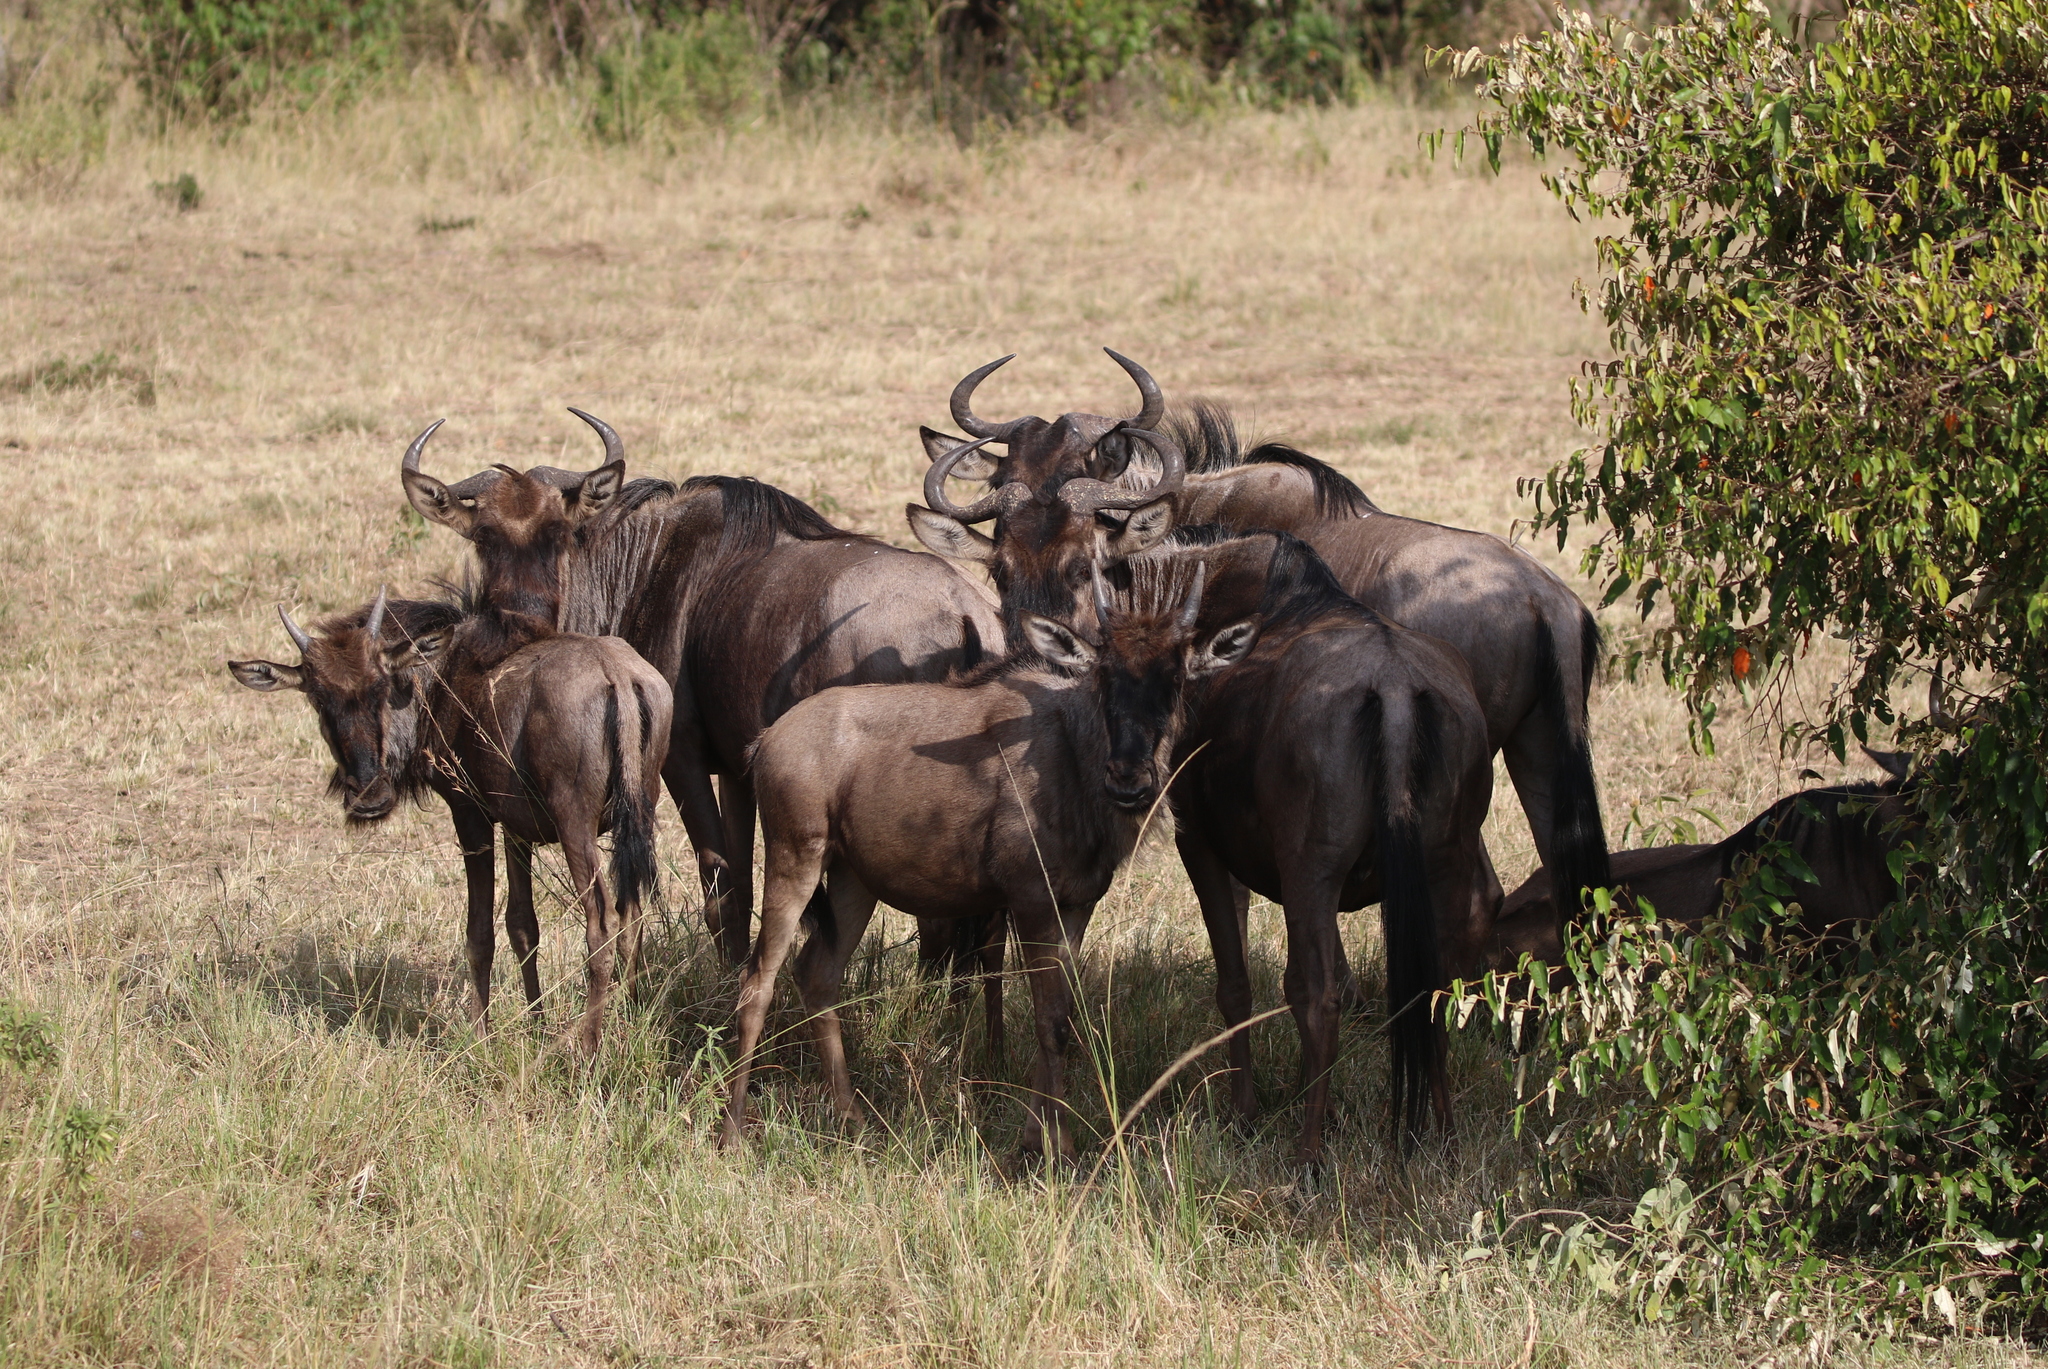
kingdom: Animalia
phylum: Chordata
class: Mammalia
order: Artiodactyla
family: Bovidae
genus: Connochaetes
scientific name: Connochaetes taurinus
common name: Blue wildebeest
